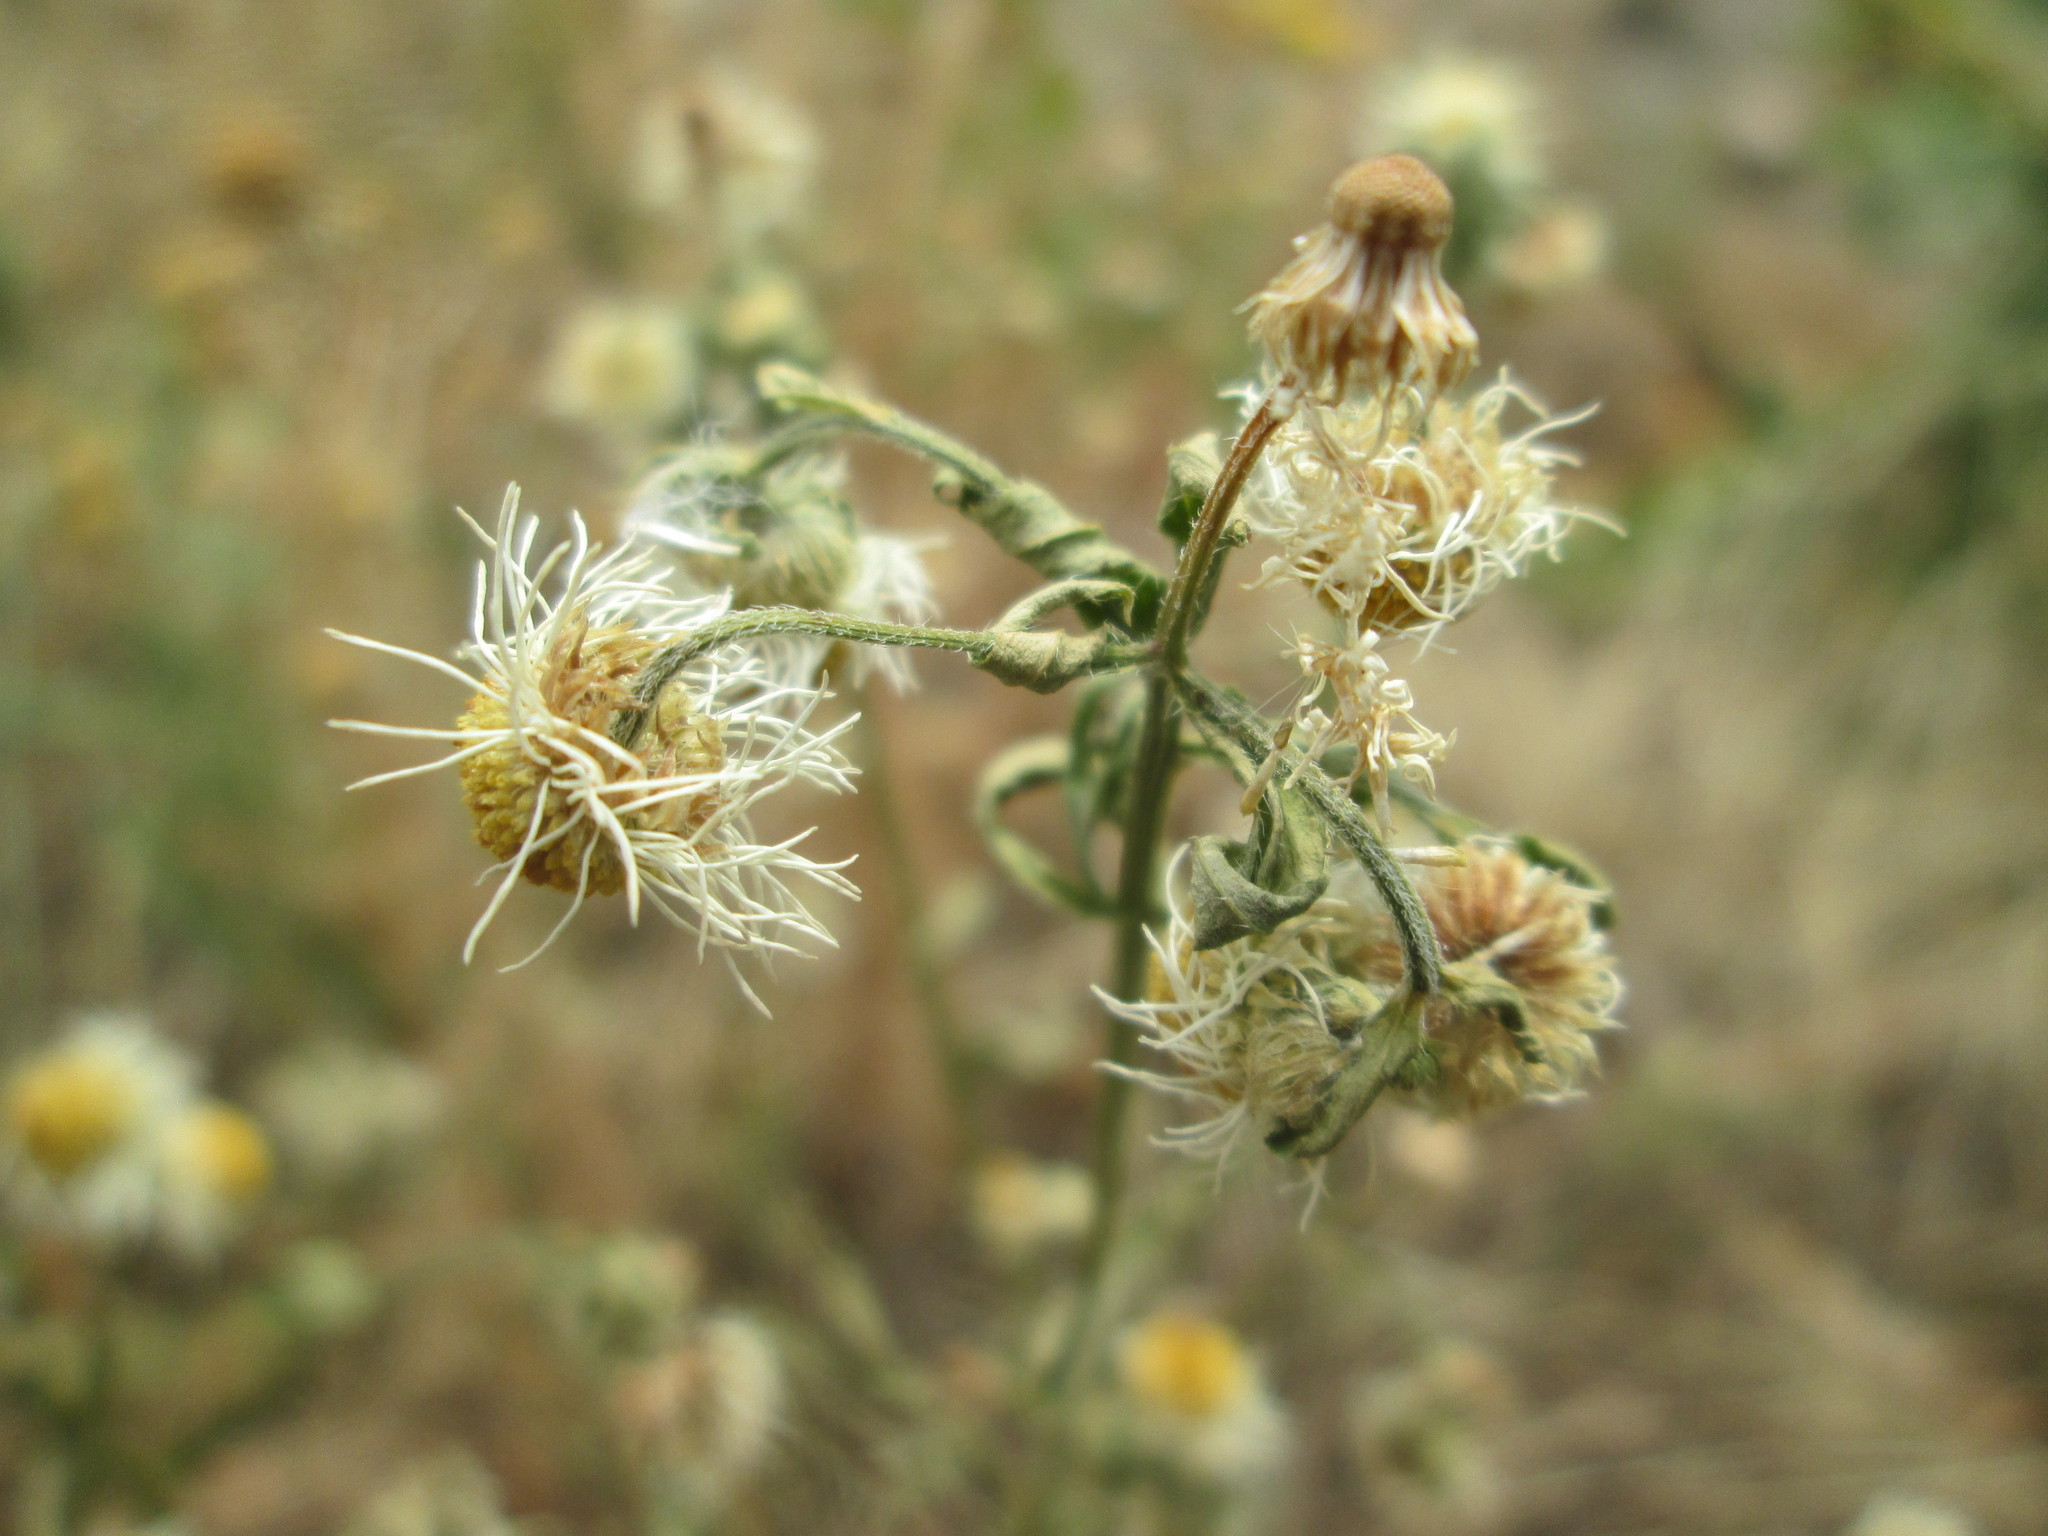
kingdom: Plantae
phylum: Tracheophyta
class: Magnoliopsida
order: Asterales
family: Asteraceae
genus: Erigeron
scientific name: Erigeron annuus
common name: Tall fleabane
